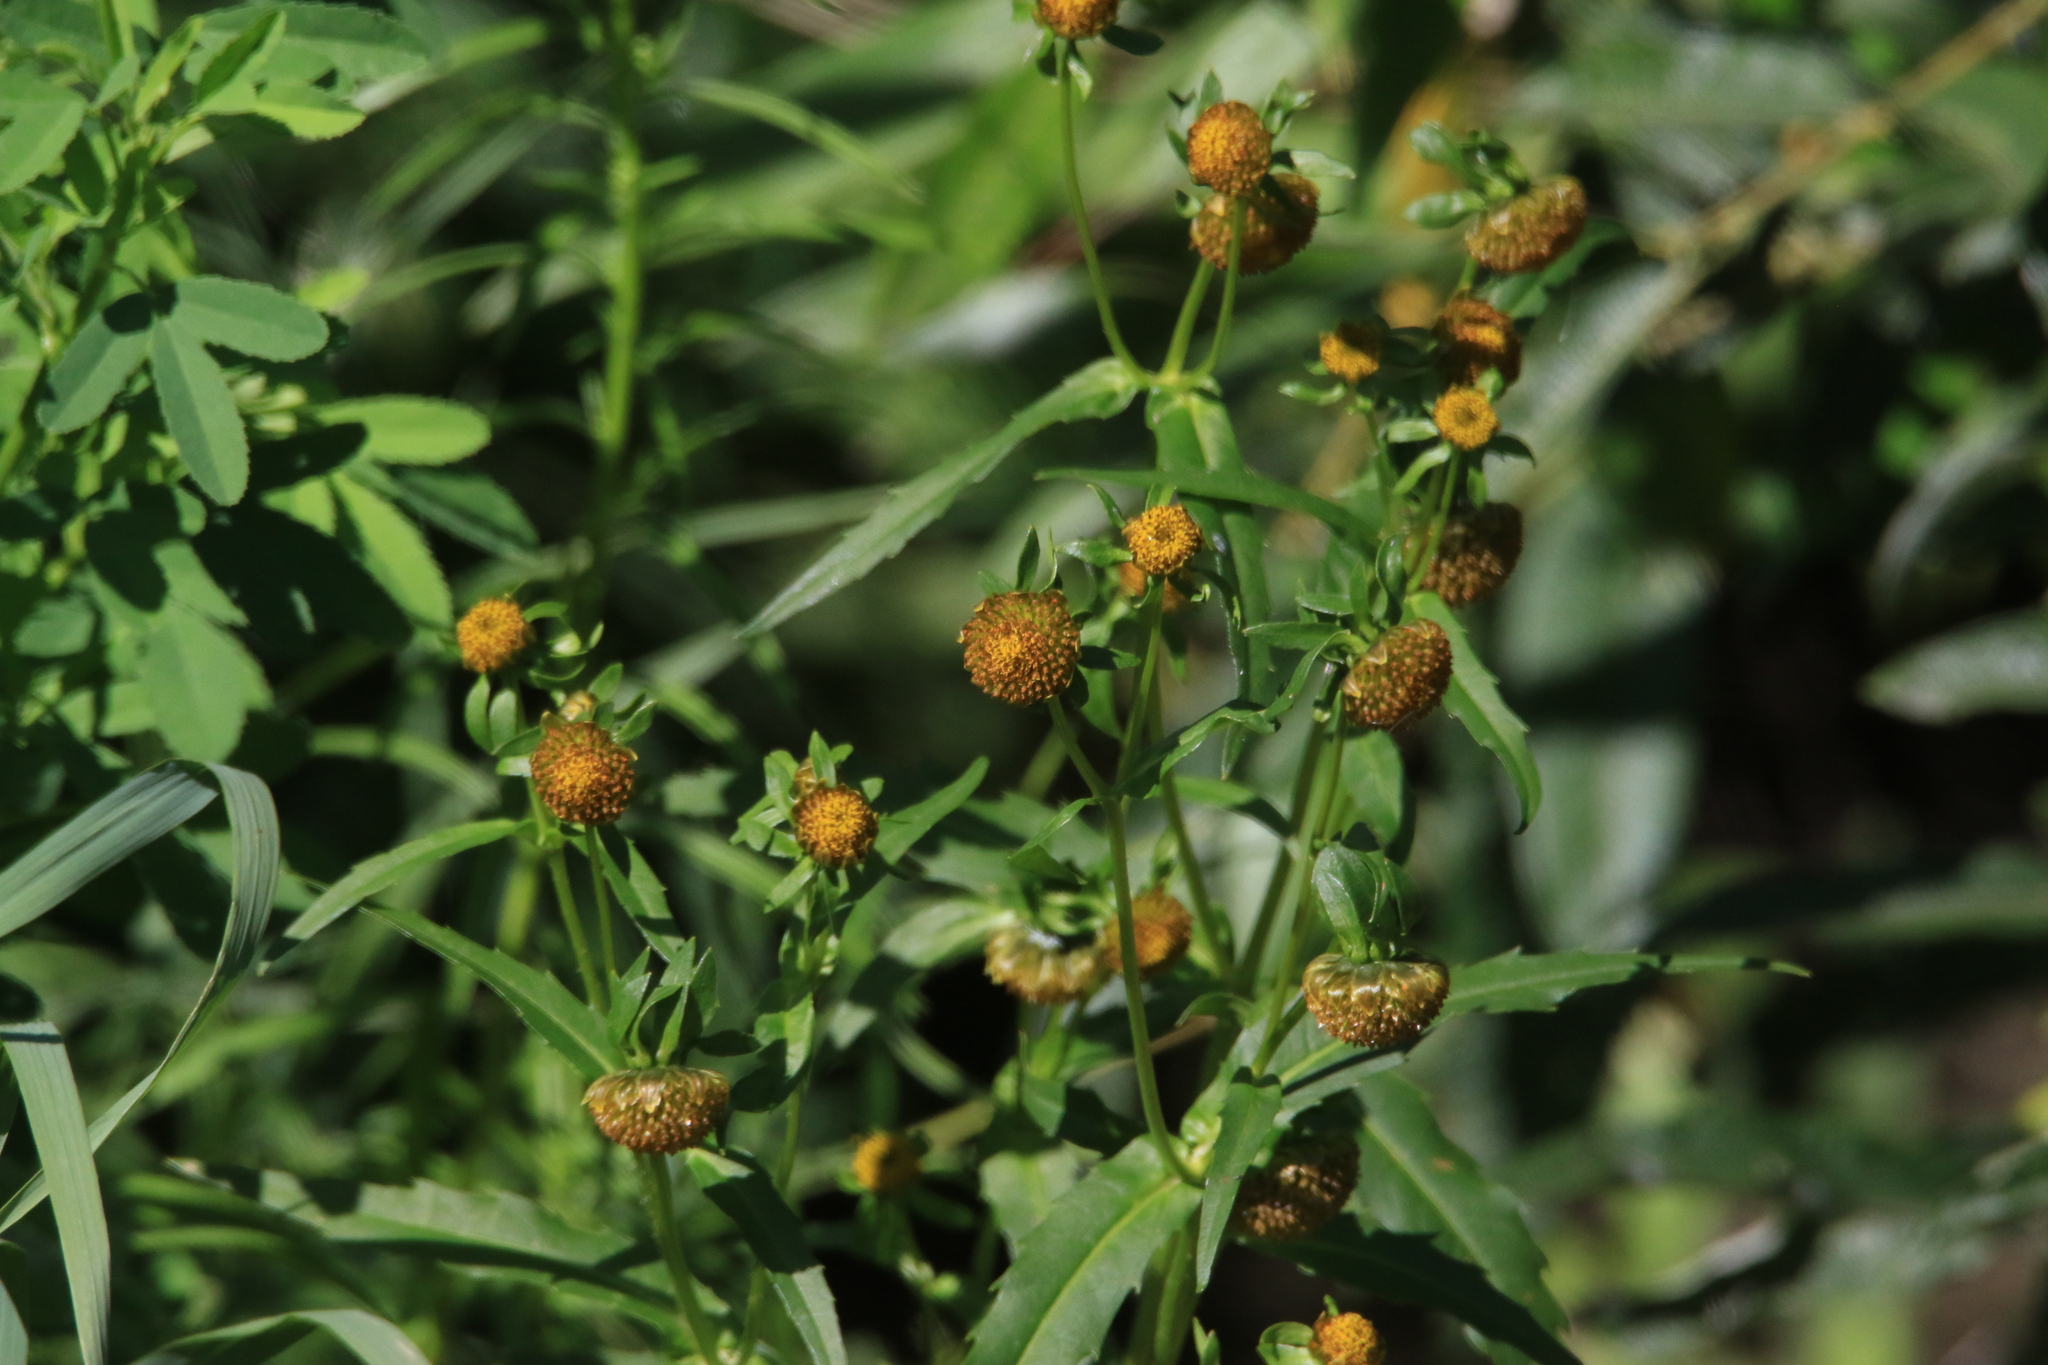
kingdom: Plantae
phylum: Tracheophyta
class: Magnoliopsida
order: Asterales
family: Asteraceae
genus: Bidens
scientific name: Bidens cernua
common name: Nodding bur-marigold
